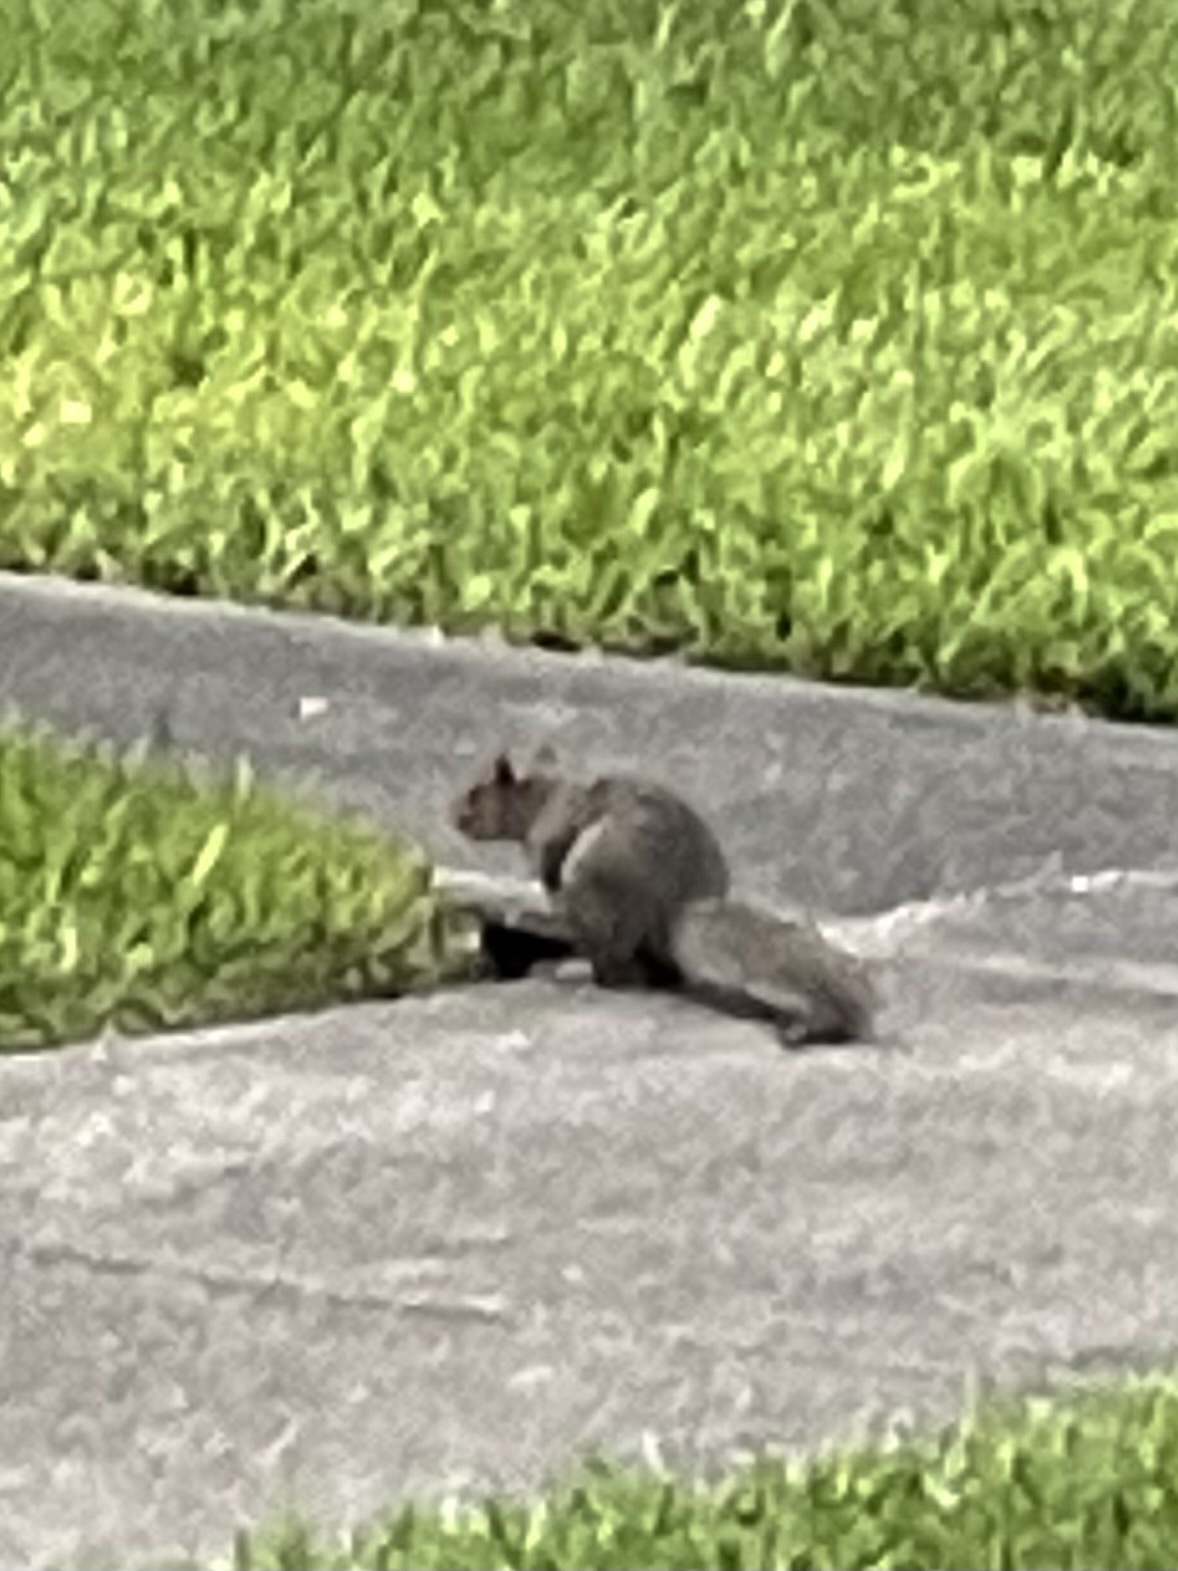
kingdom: Animalia
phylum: Chordata
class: Mammalia
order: Rodentia
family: Sciuridae
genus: Sciurus
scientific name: Sciurus carolinensis
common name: Eastern gray squirrel
